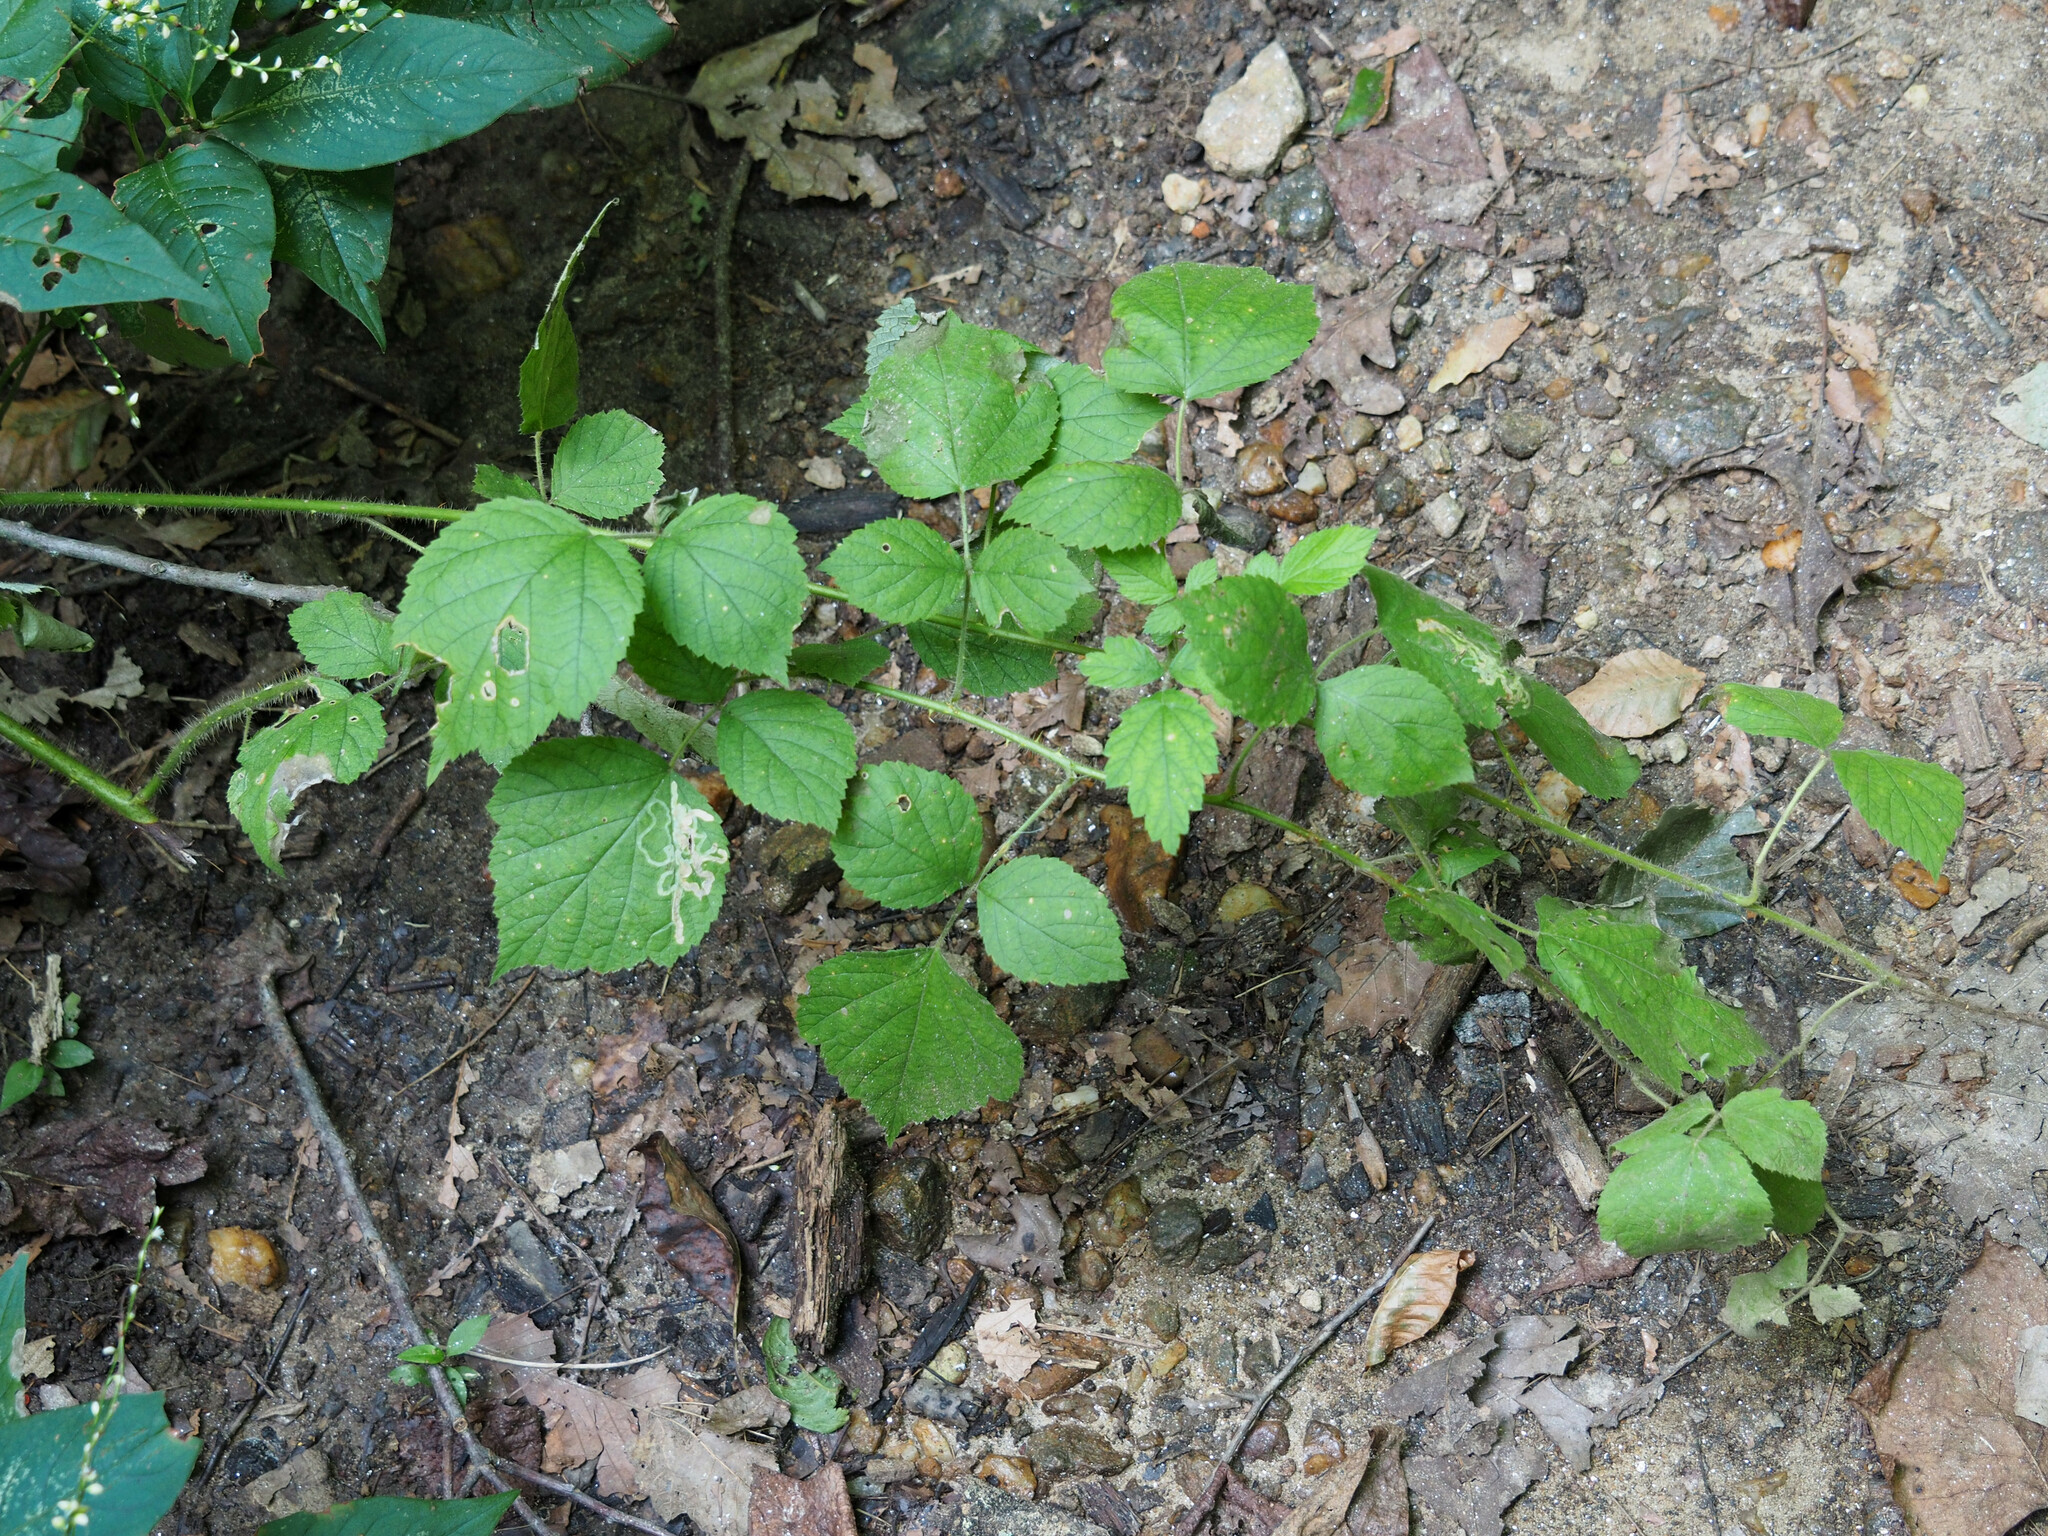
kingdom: Plantae
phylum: Tracheophyta
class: Magnoliopsida
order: Rosales
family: Rosaceae
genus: Rubus
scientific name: Rubus phoenicolasius
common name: Japanese wineberry
